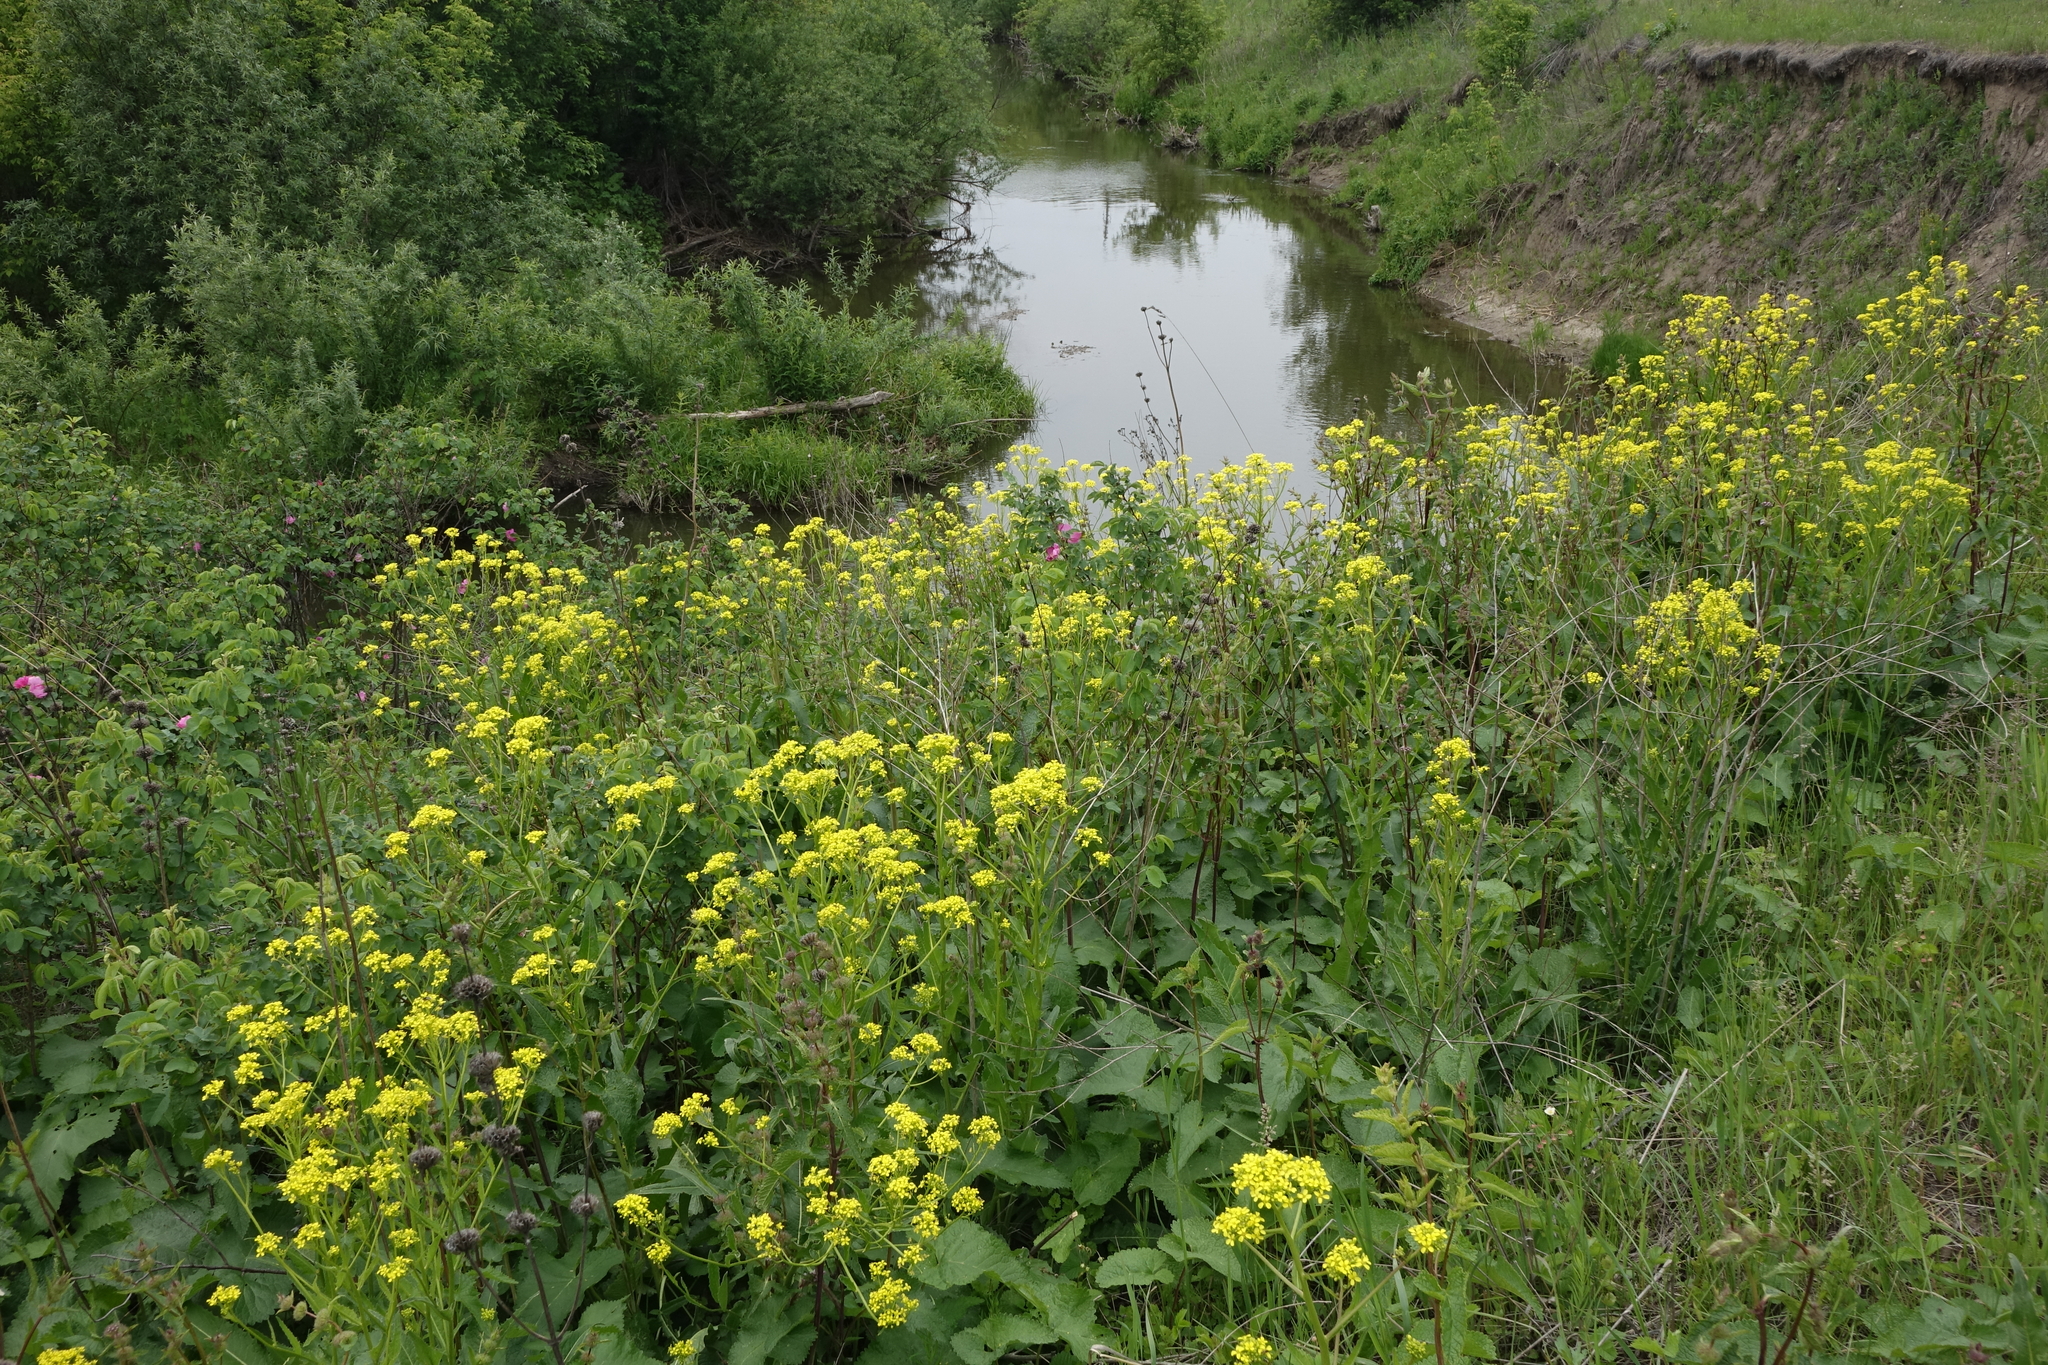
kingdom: Plantae
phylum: Tracheophyta
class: Magnoliopsida
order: Brassicales
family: Brassicaceae
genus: Bunias
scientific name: Bunias orientalis
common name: Warty-cabbage
